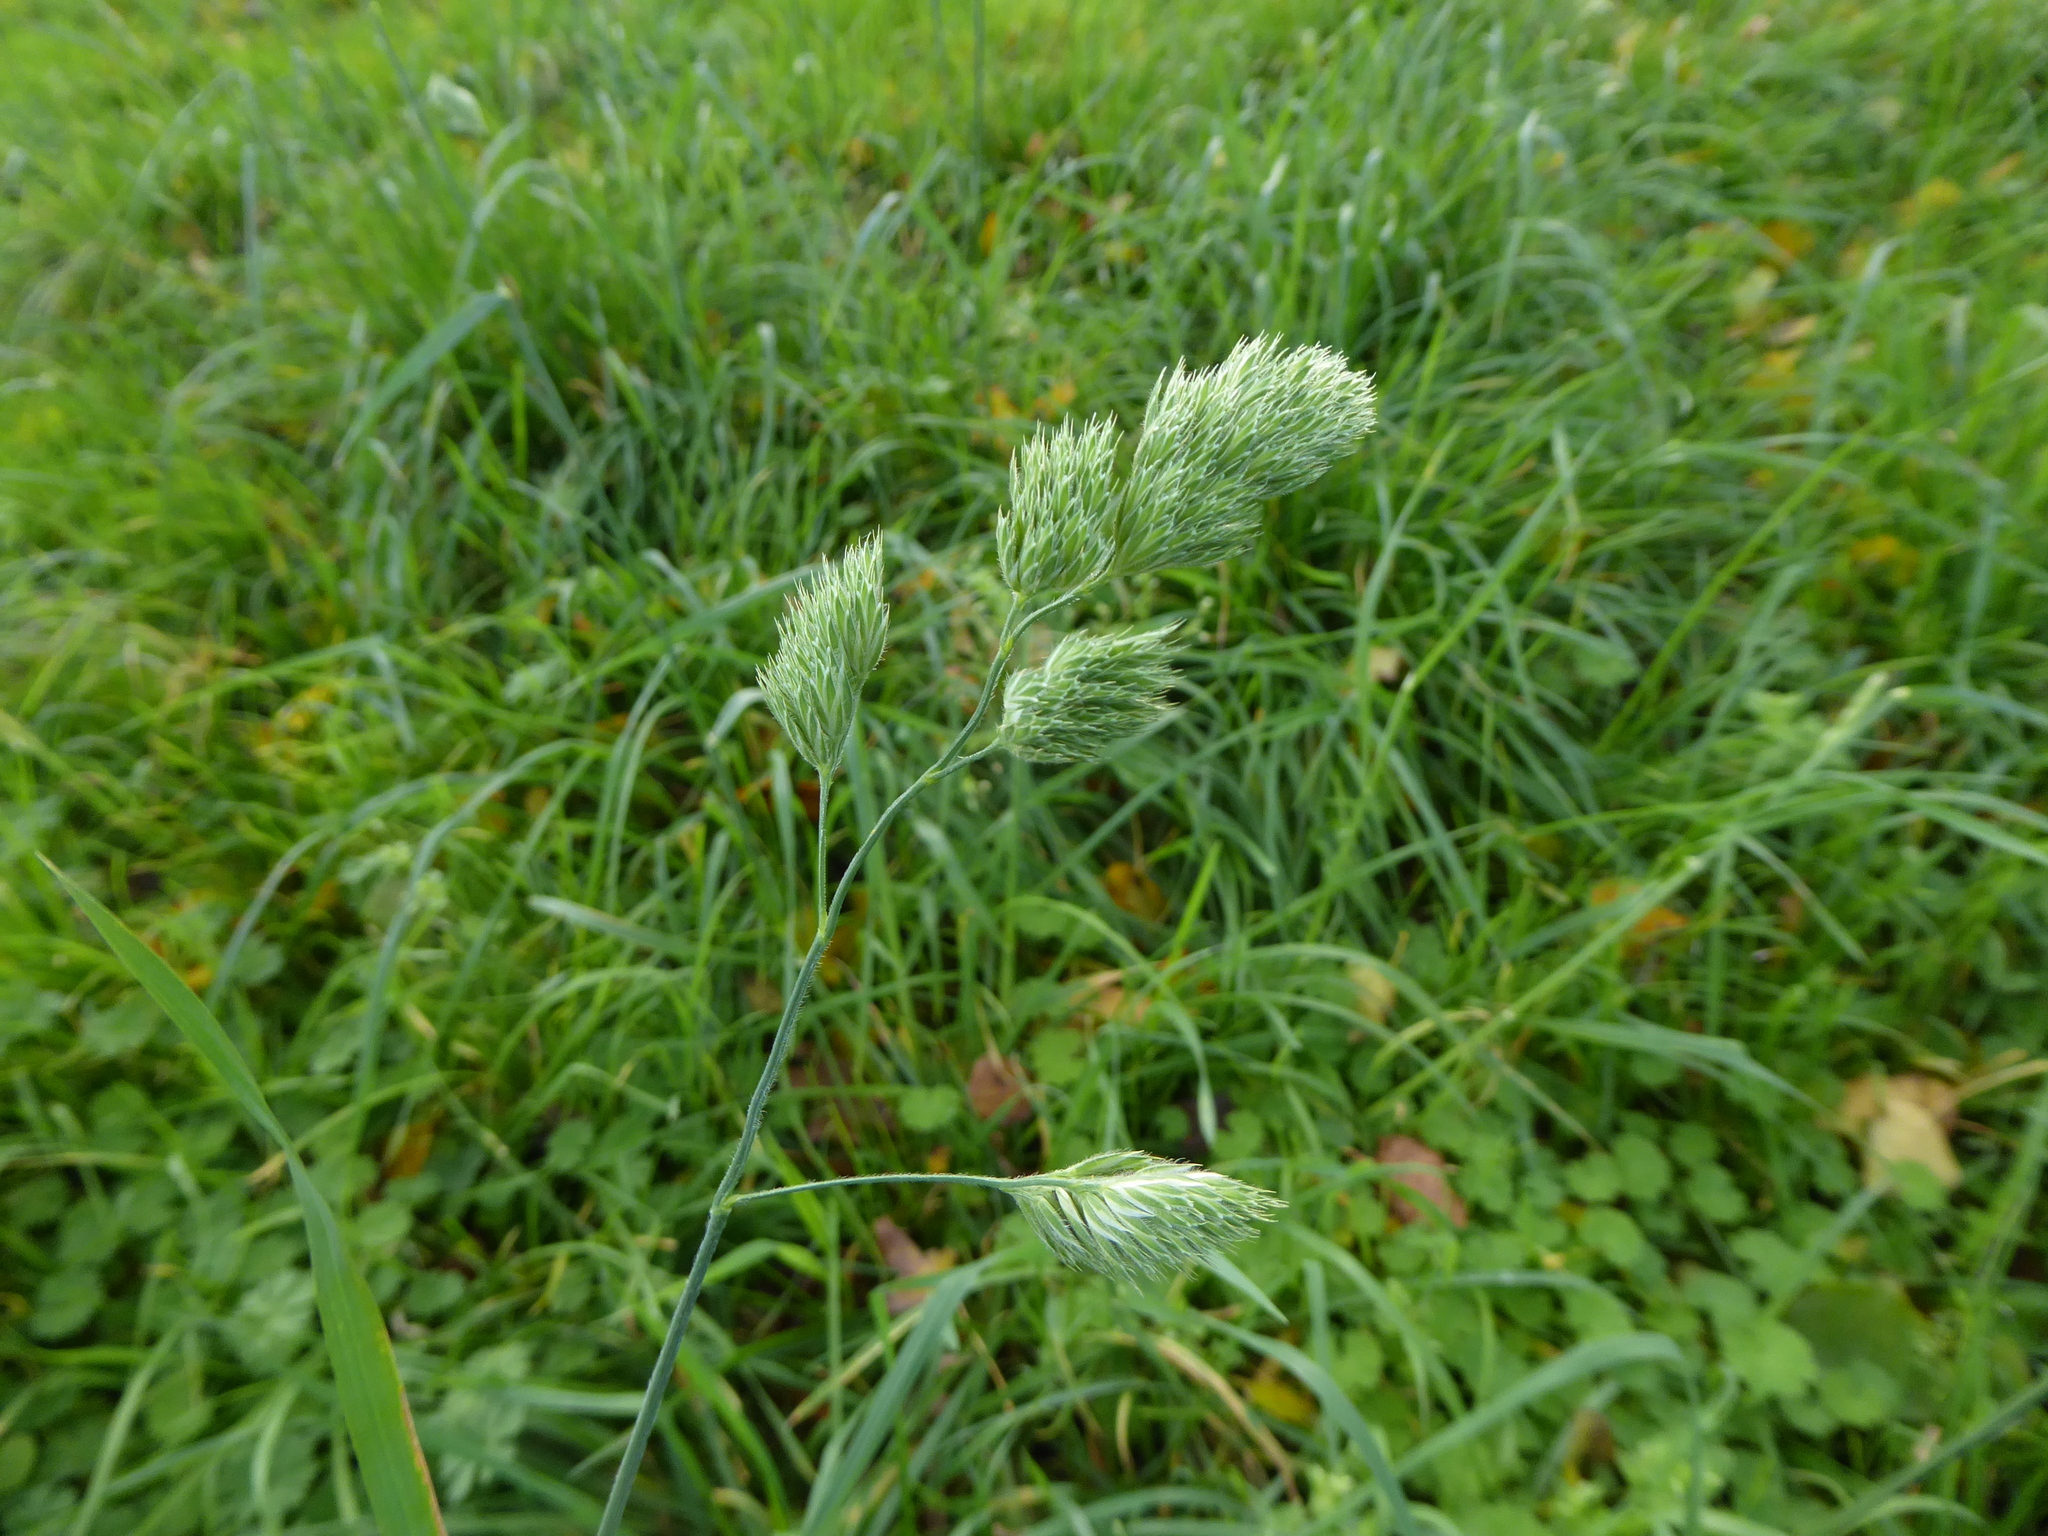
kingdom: Plantae
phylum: Tracheophyta
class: Liliopsida
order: Poales
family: Poaceae
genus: Dactylis
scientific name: Dactylis glomerata
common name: Orchardgrass
